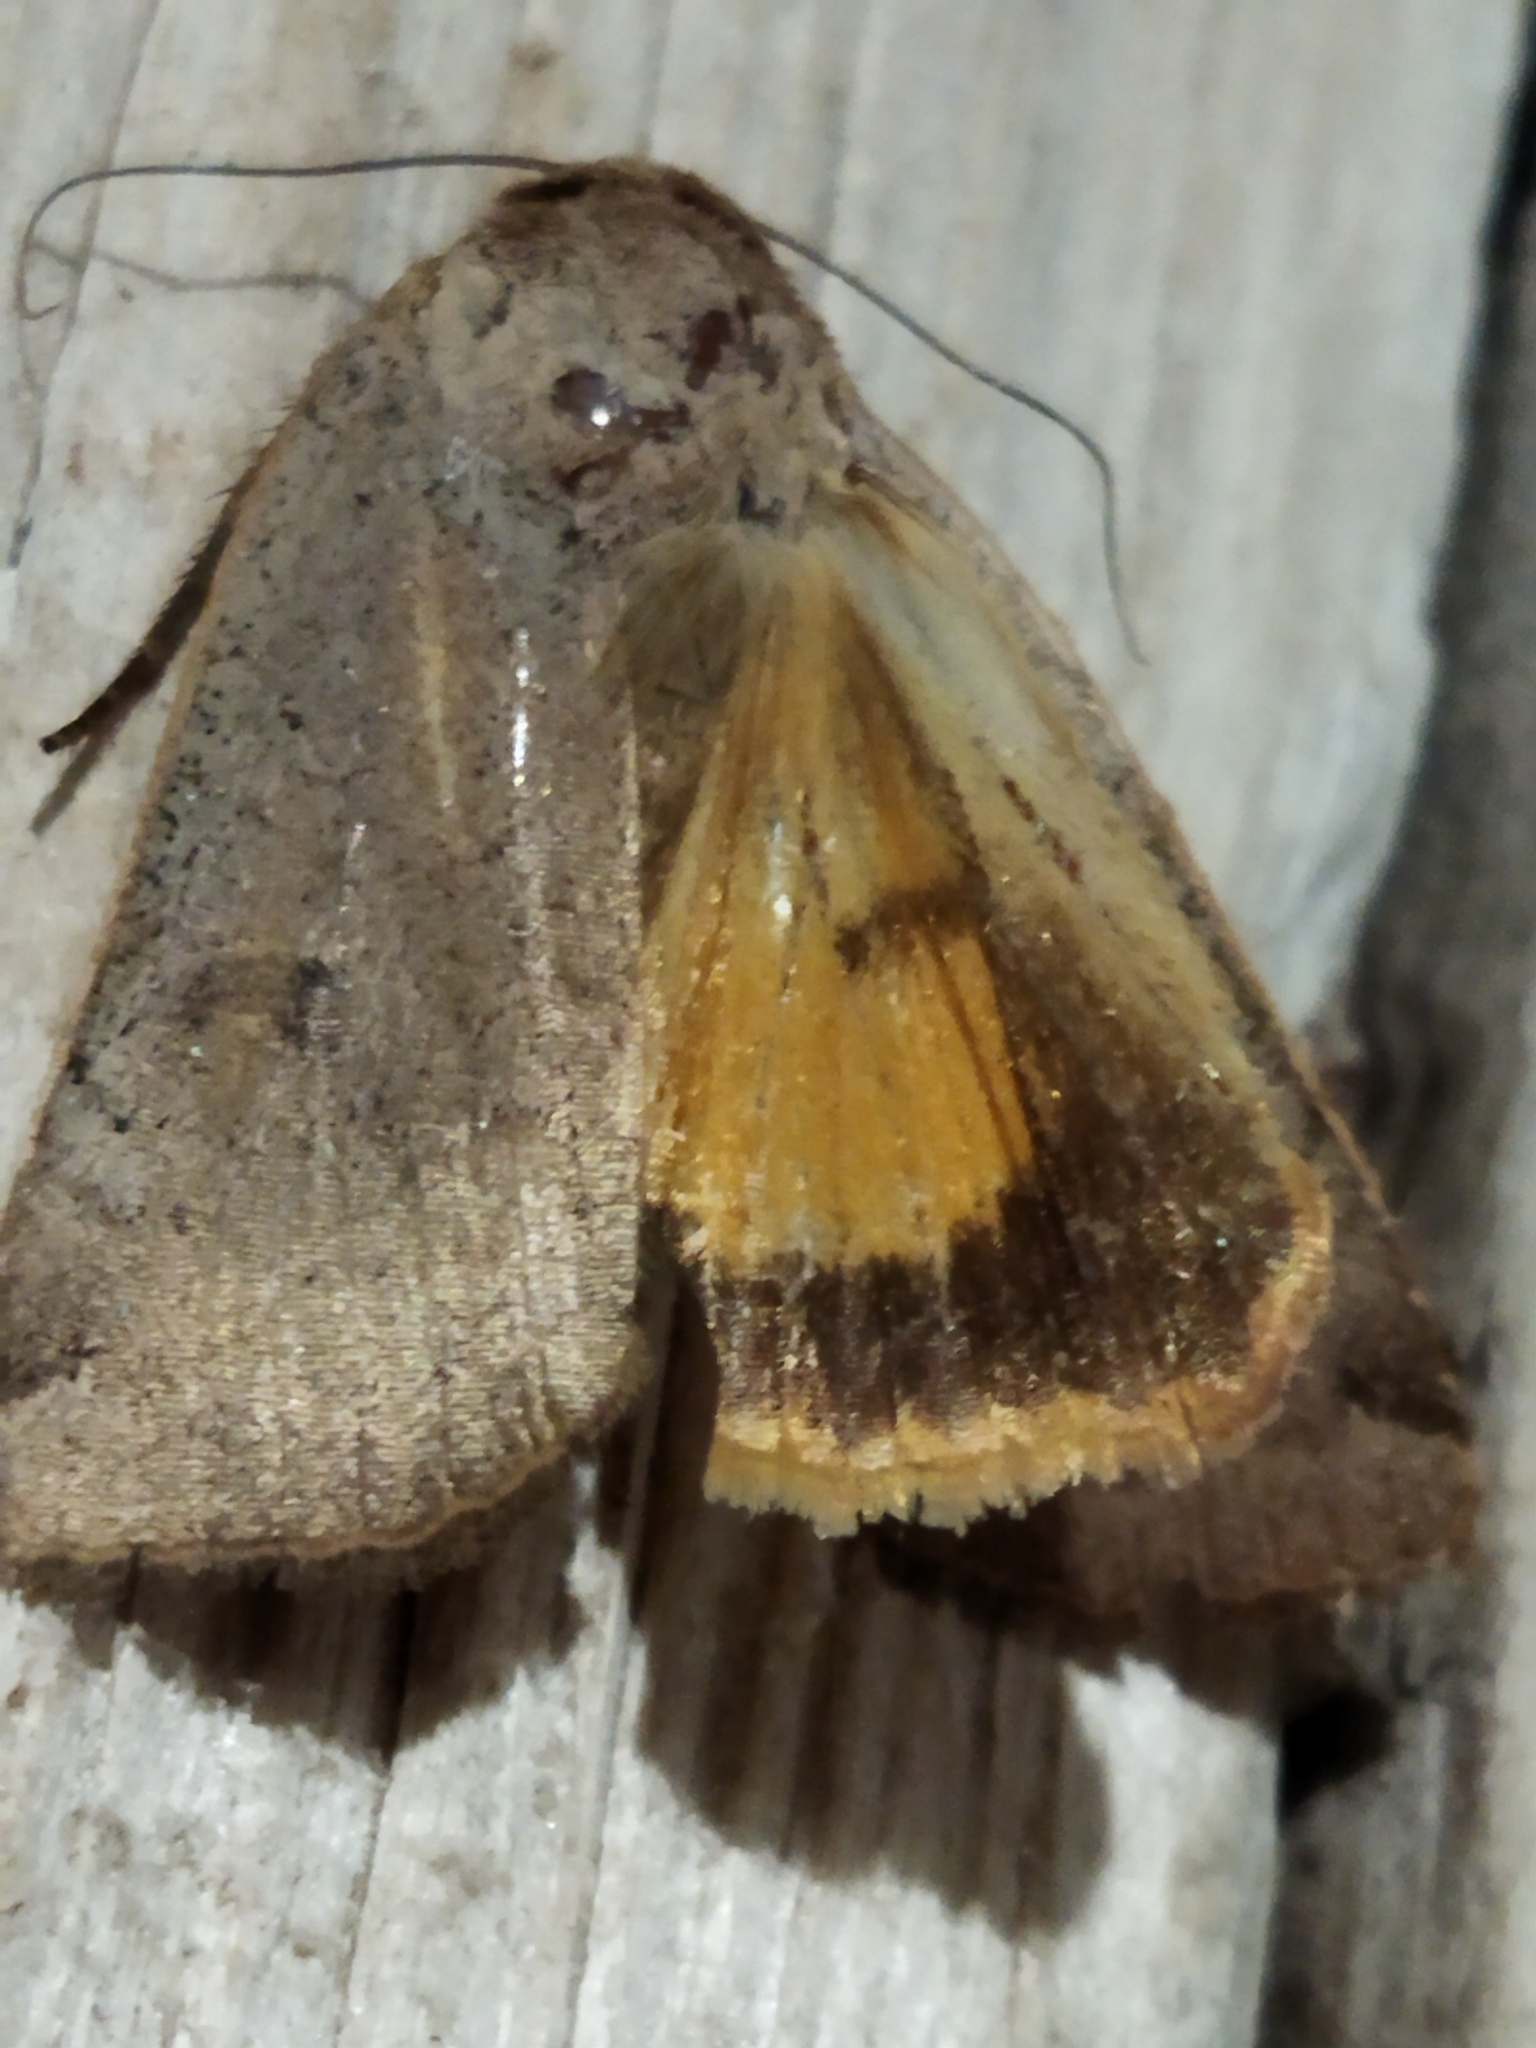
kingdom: Animalia
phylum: Arthropoda
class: Insecta
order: Lepidoptera
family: Noctuidae
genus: Noctua
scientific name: Noctua comes
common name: Lesser yellow underwing
